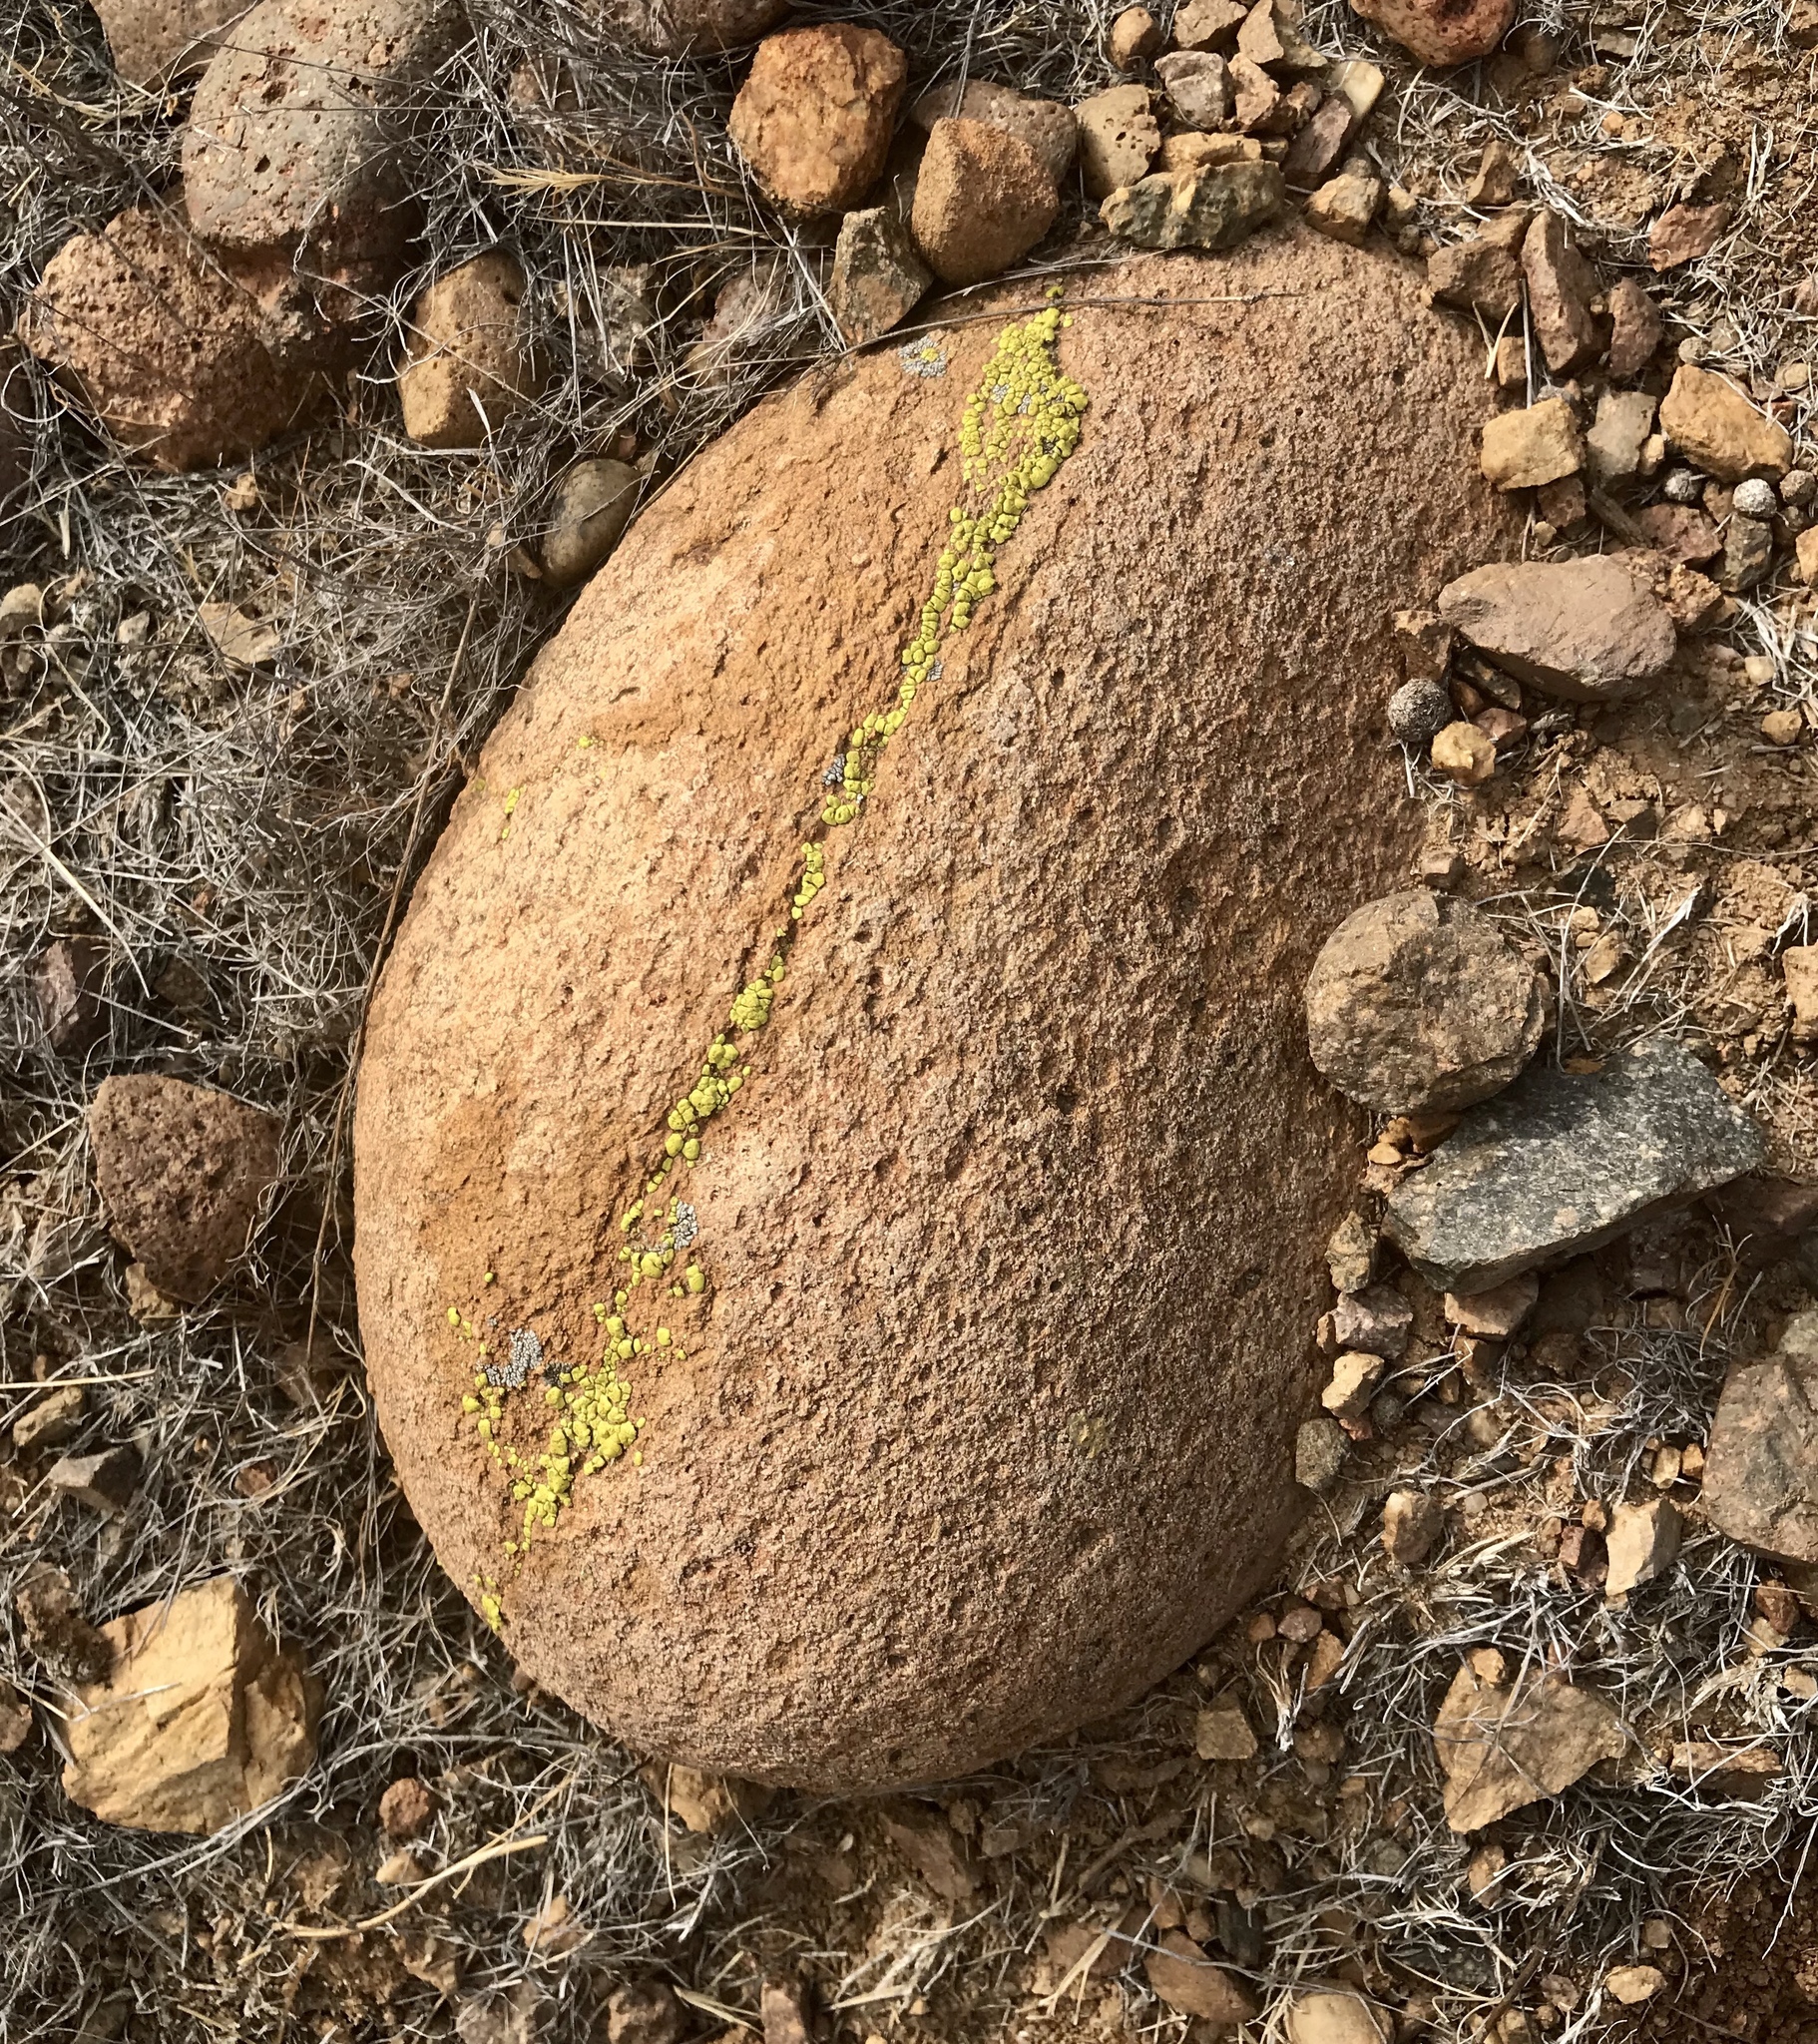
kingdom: Fungi
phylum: Ascomycota
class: Lecanoromycetes
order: Acarosporales
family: Acarosporaceae
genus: Acarospora
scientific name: Acarospora socialis
